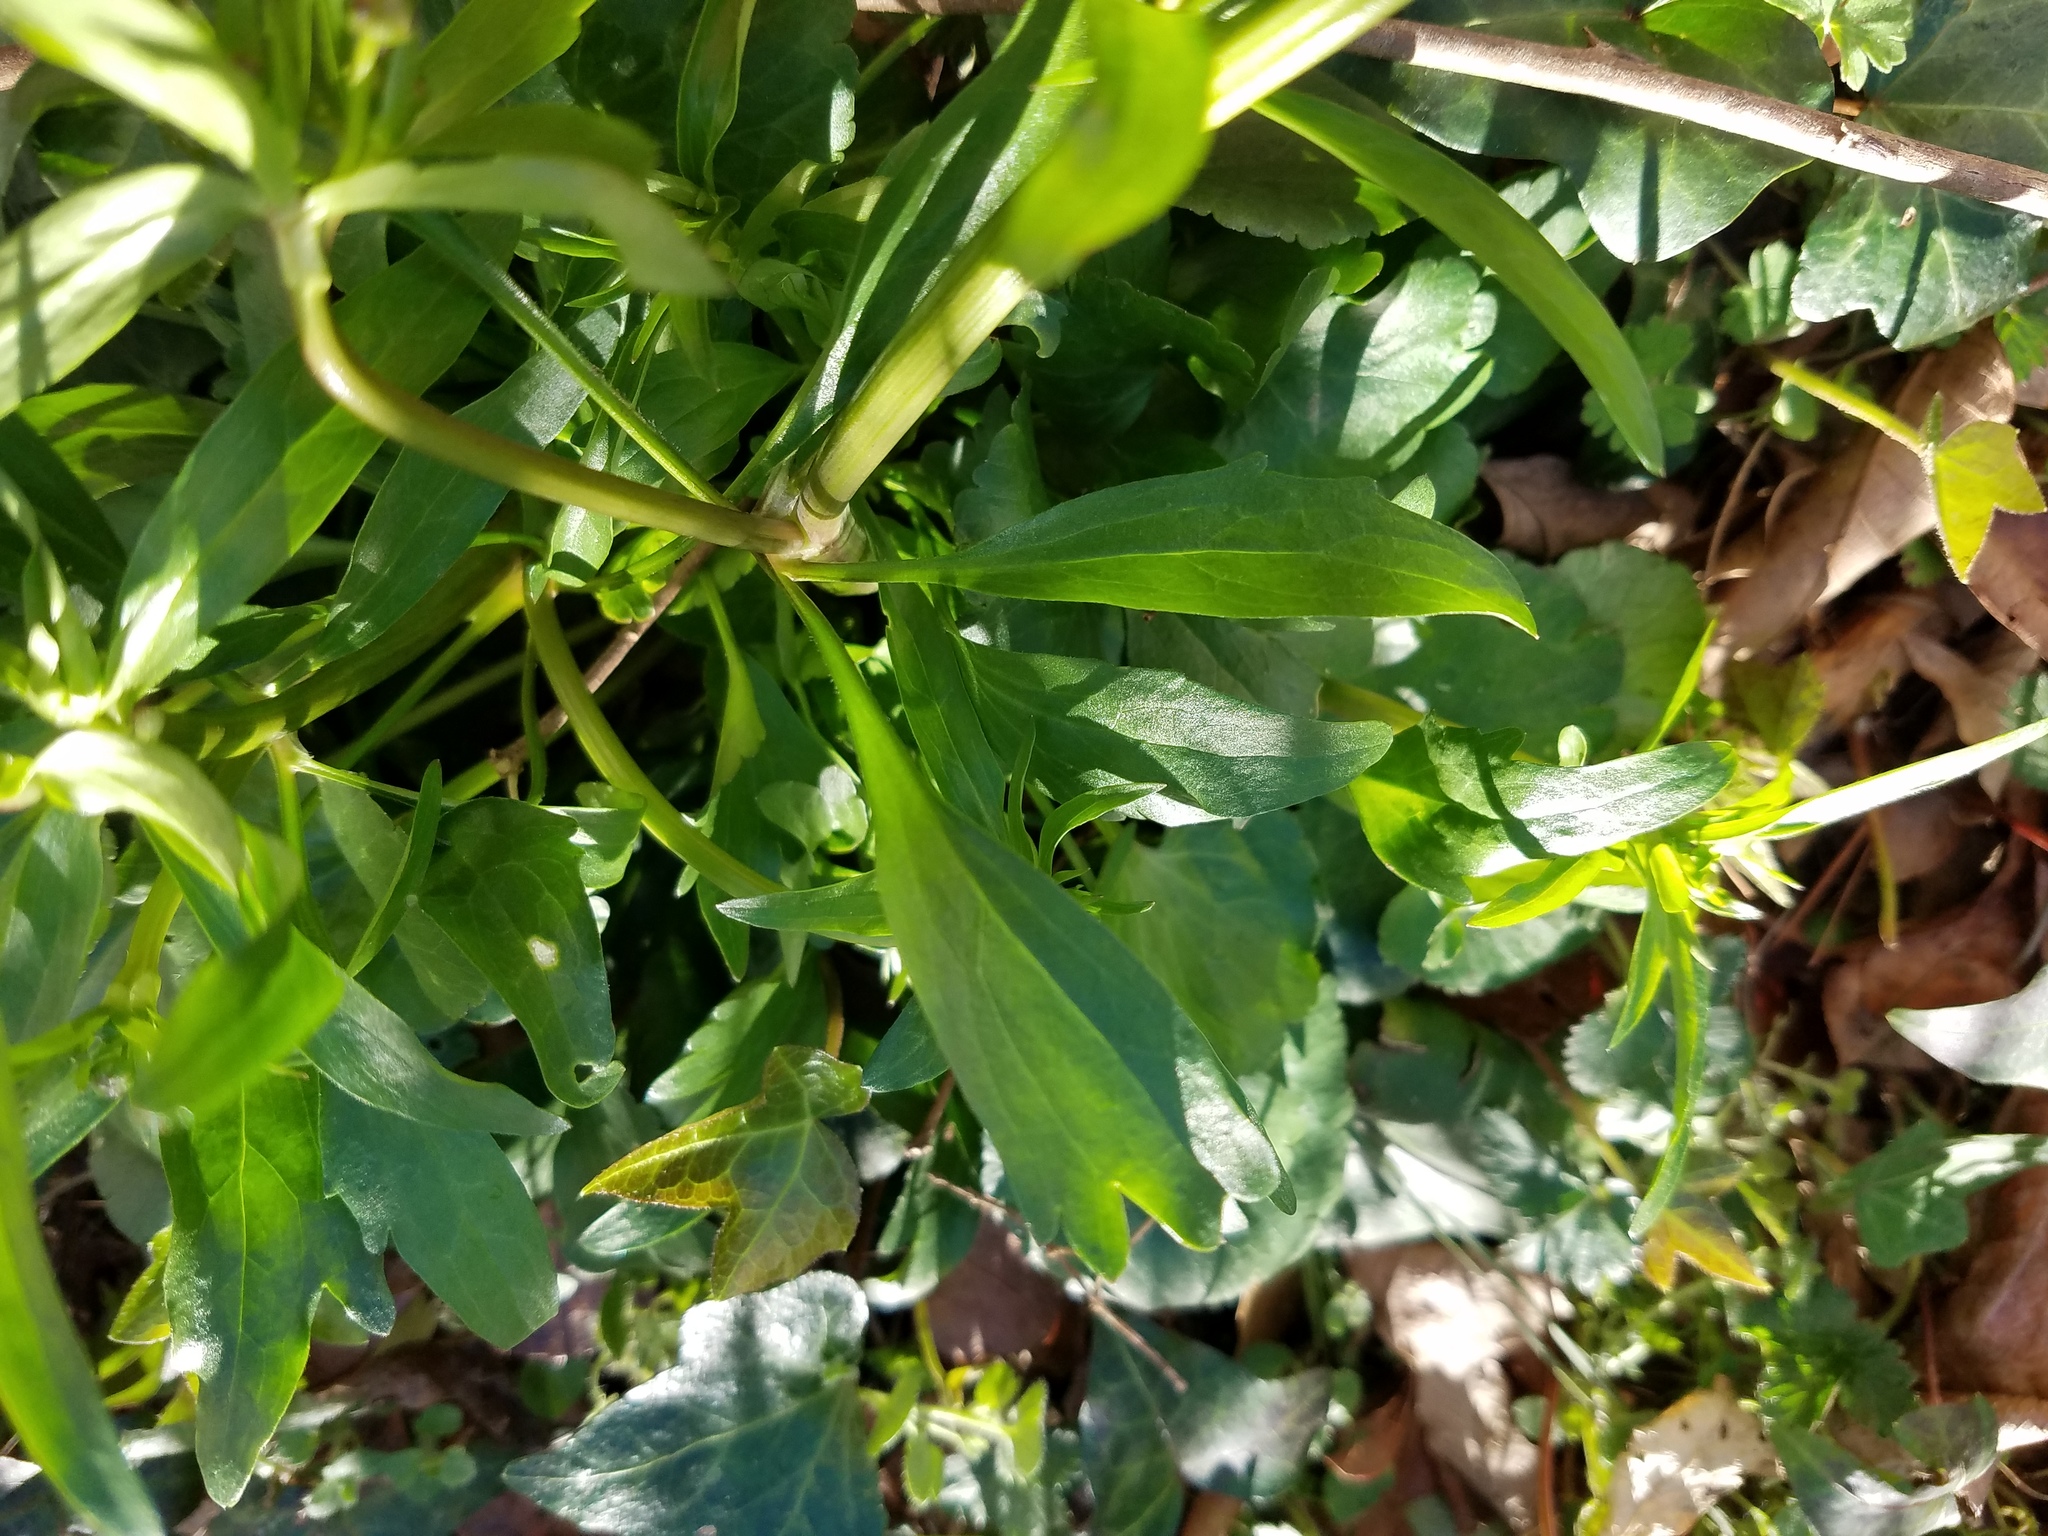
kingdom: Plantae
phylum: Tracheophyta
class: Magnoliopsida
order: Ranunculales
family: Ranunculaceae
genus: Ranunculus
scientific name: Ranunculus abortivus
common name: Early wood buttercup
